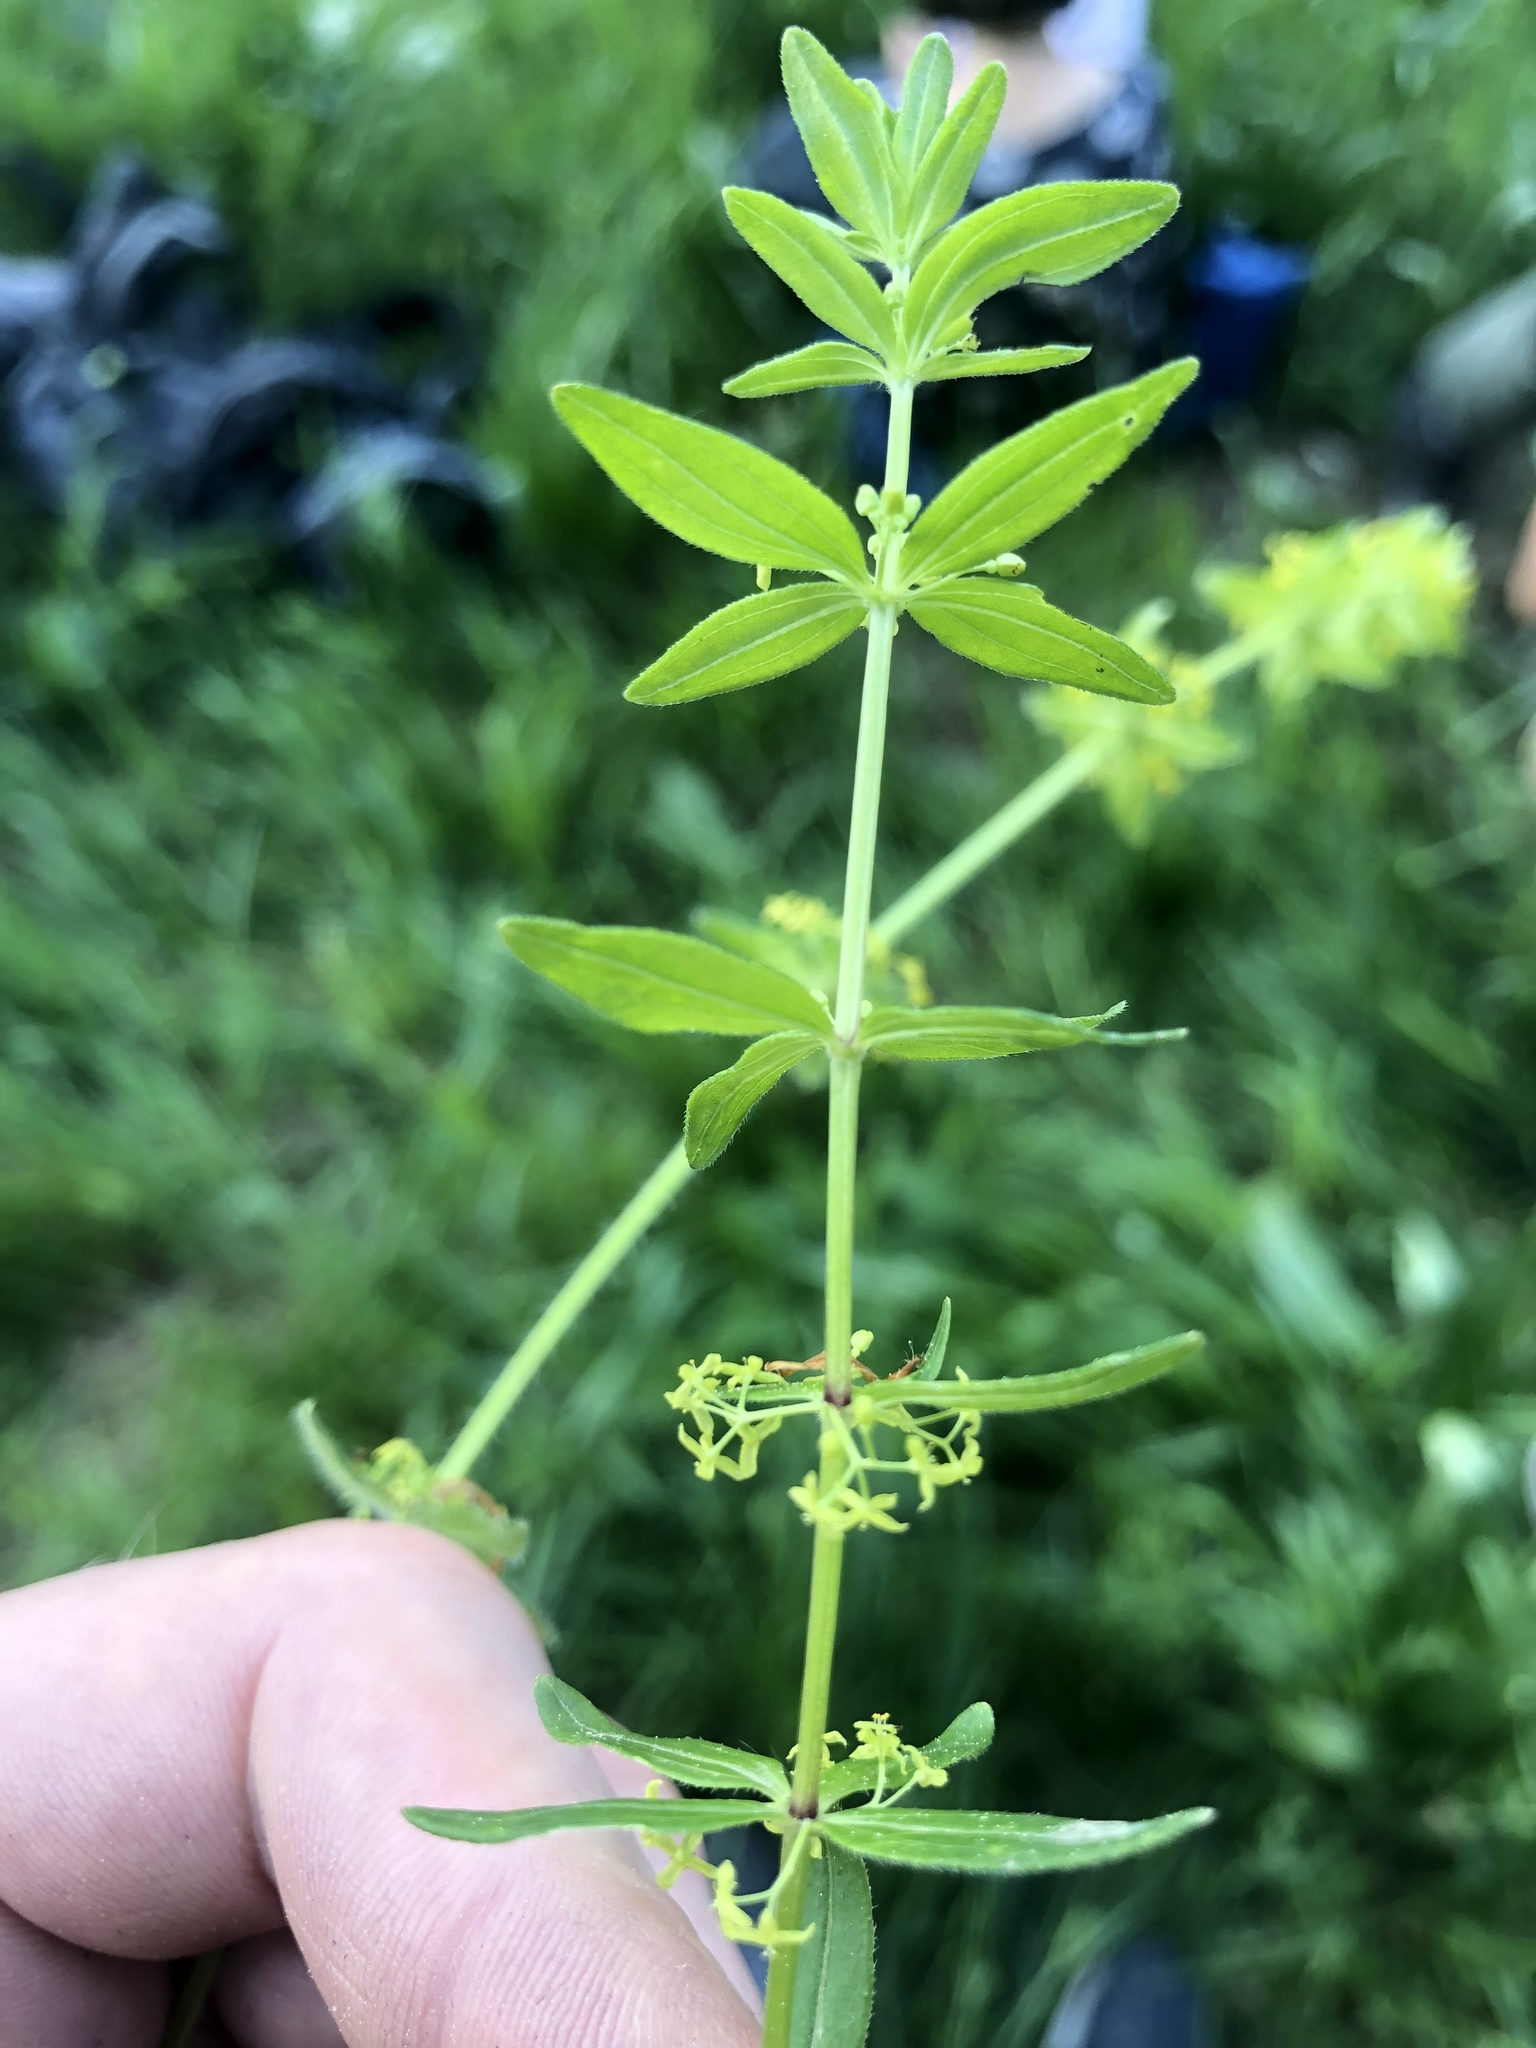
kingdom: Plantae
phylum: Tracheophyta
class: Magnoliopsida
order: Gentianales
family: Rubiaceae
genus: Cruciata
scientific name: Cruciata glabra
